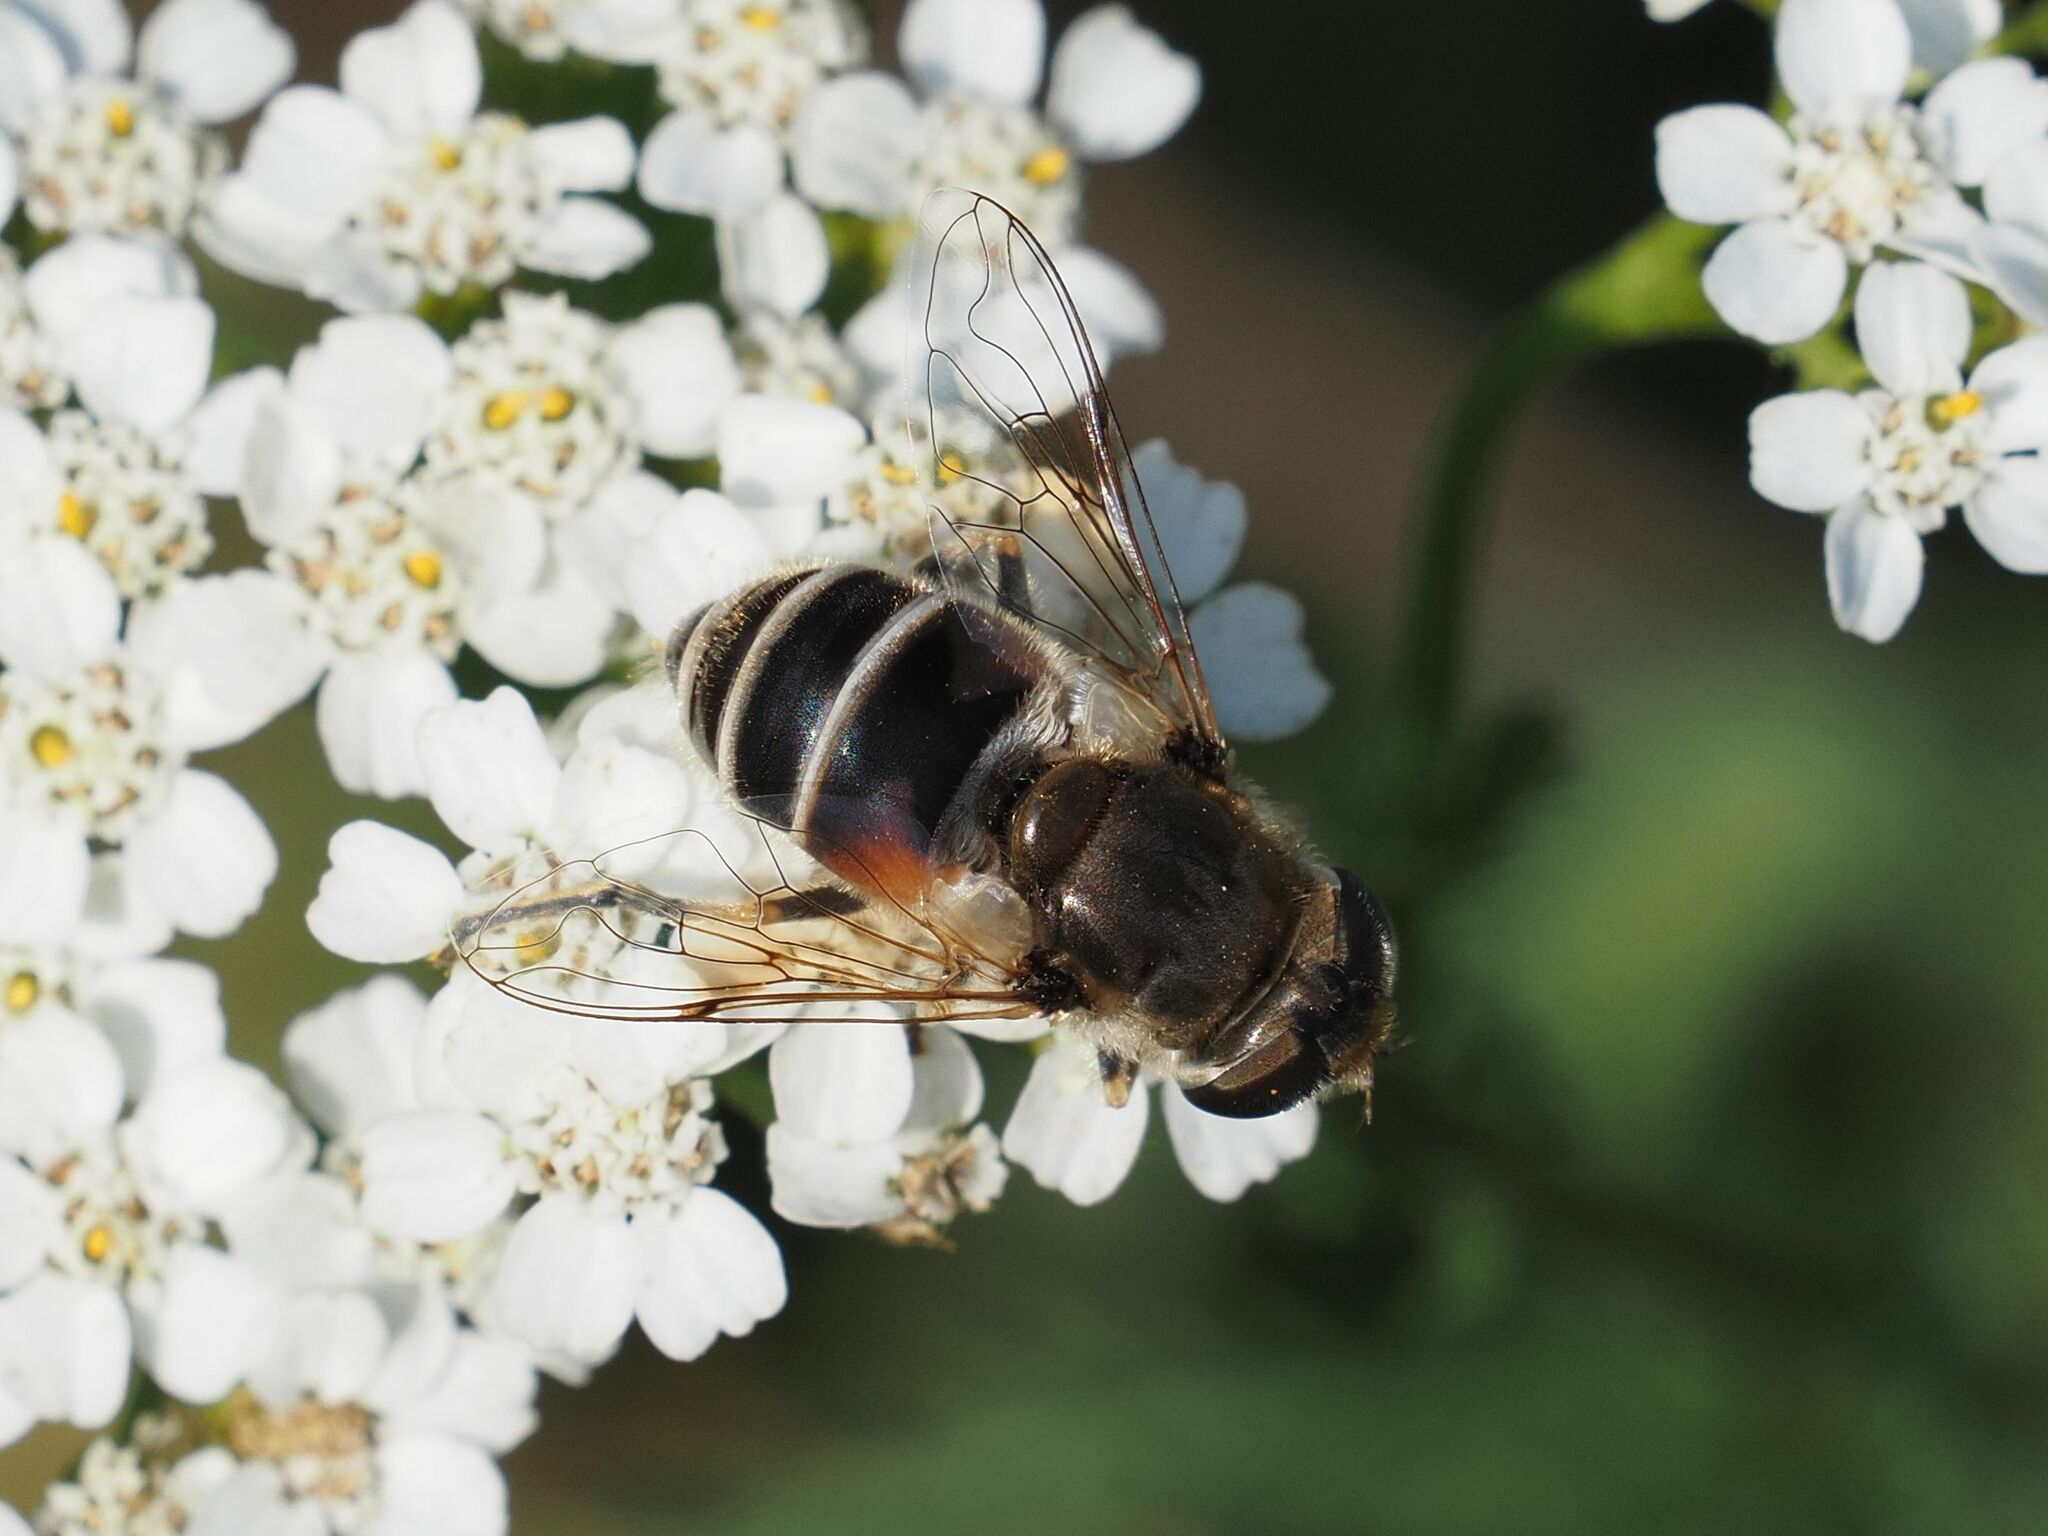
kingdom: Animalia
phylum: Arthropoda
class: Insecta
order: Diptera
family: Syrphidae
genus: Eristalis
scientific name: Eristalis arbustorum
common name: Hover fly
